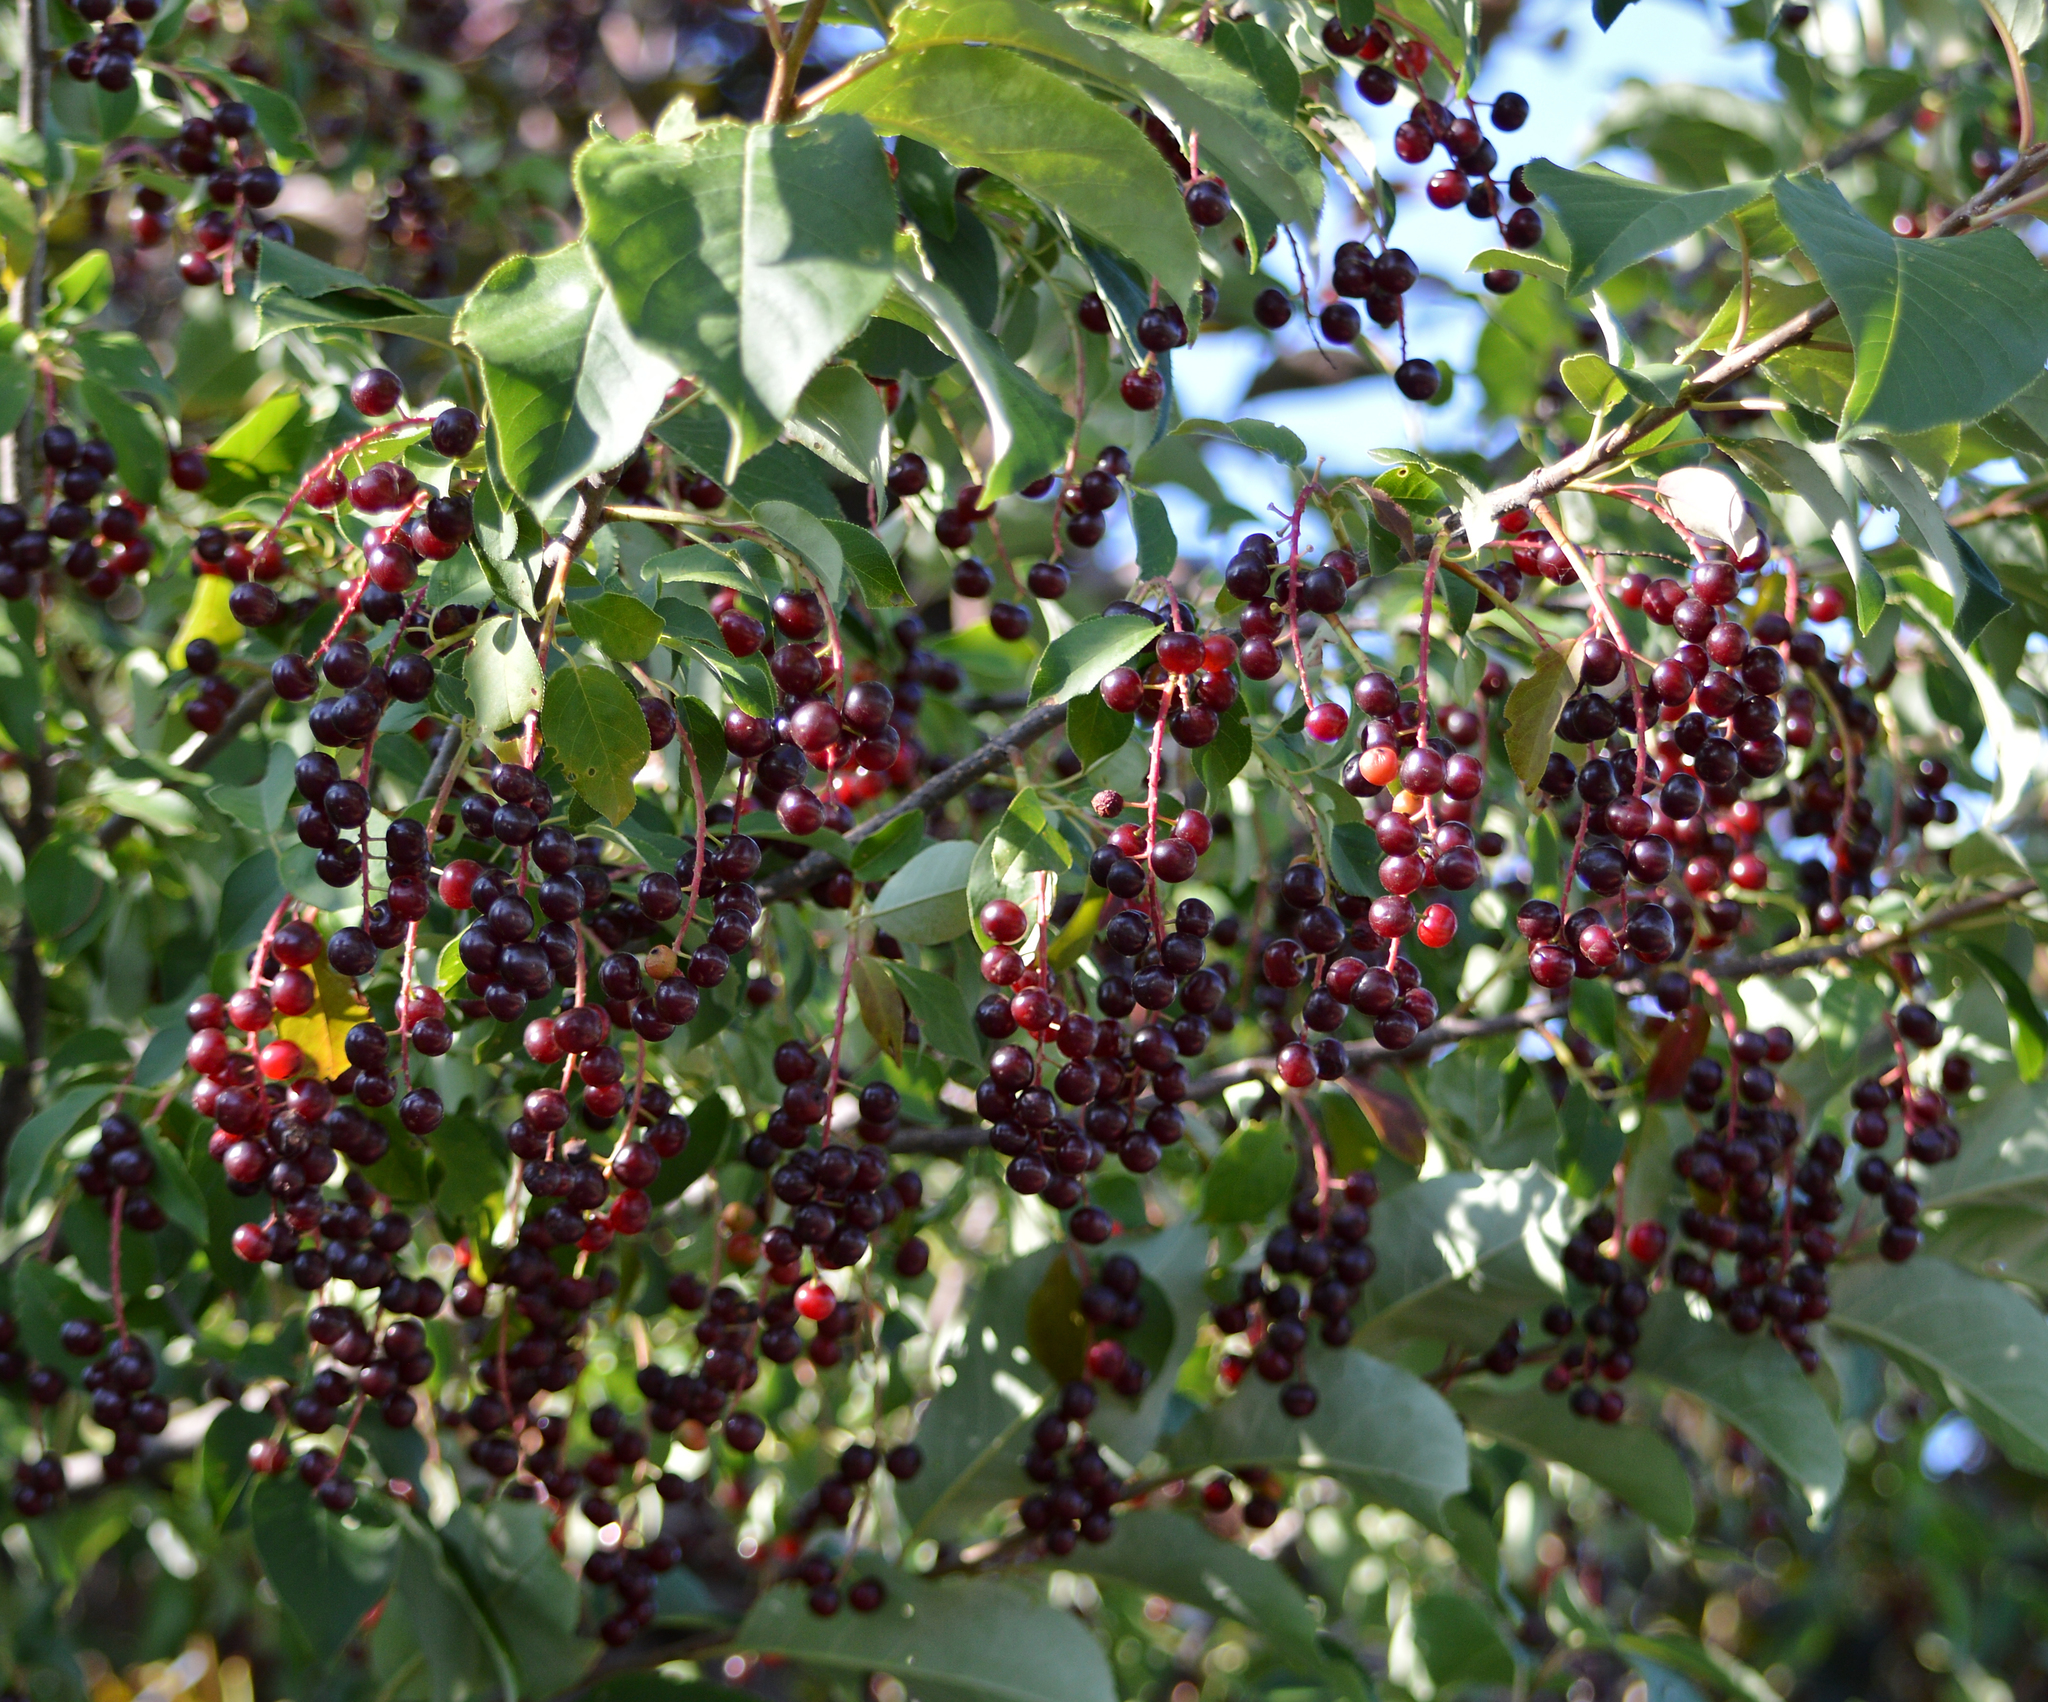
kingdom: Plantae
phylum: Tracheophyta
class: Magnoliopsida
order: Rosales
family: Rosaceae
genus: Prunus
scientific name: Prunus virginiana
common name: Chokecherry
